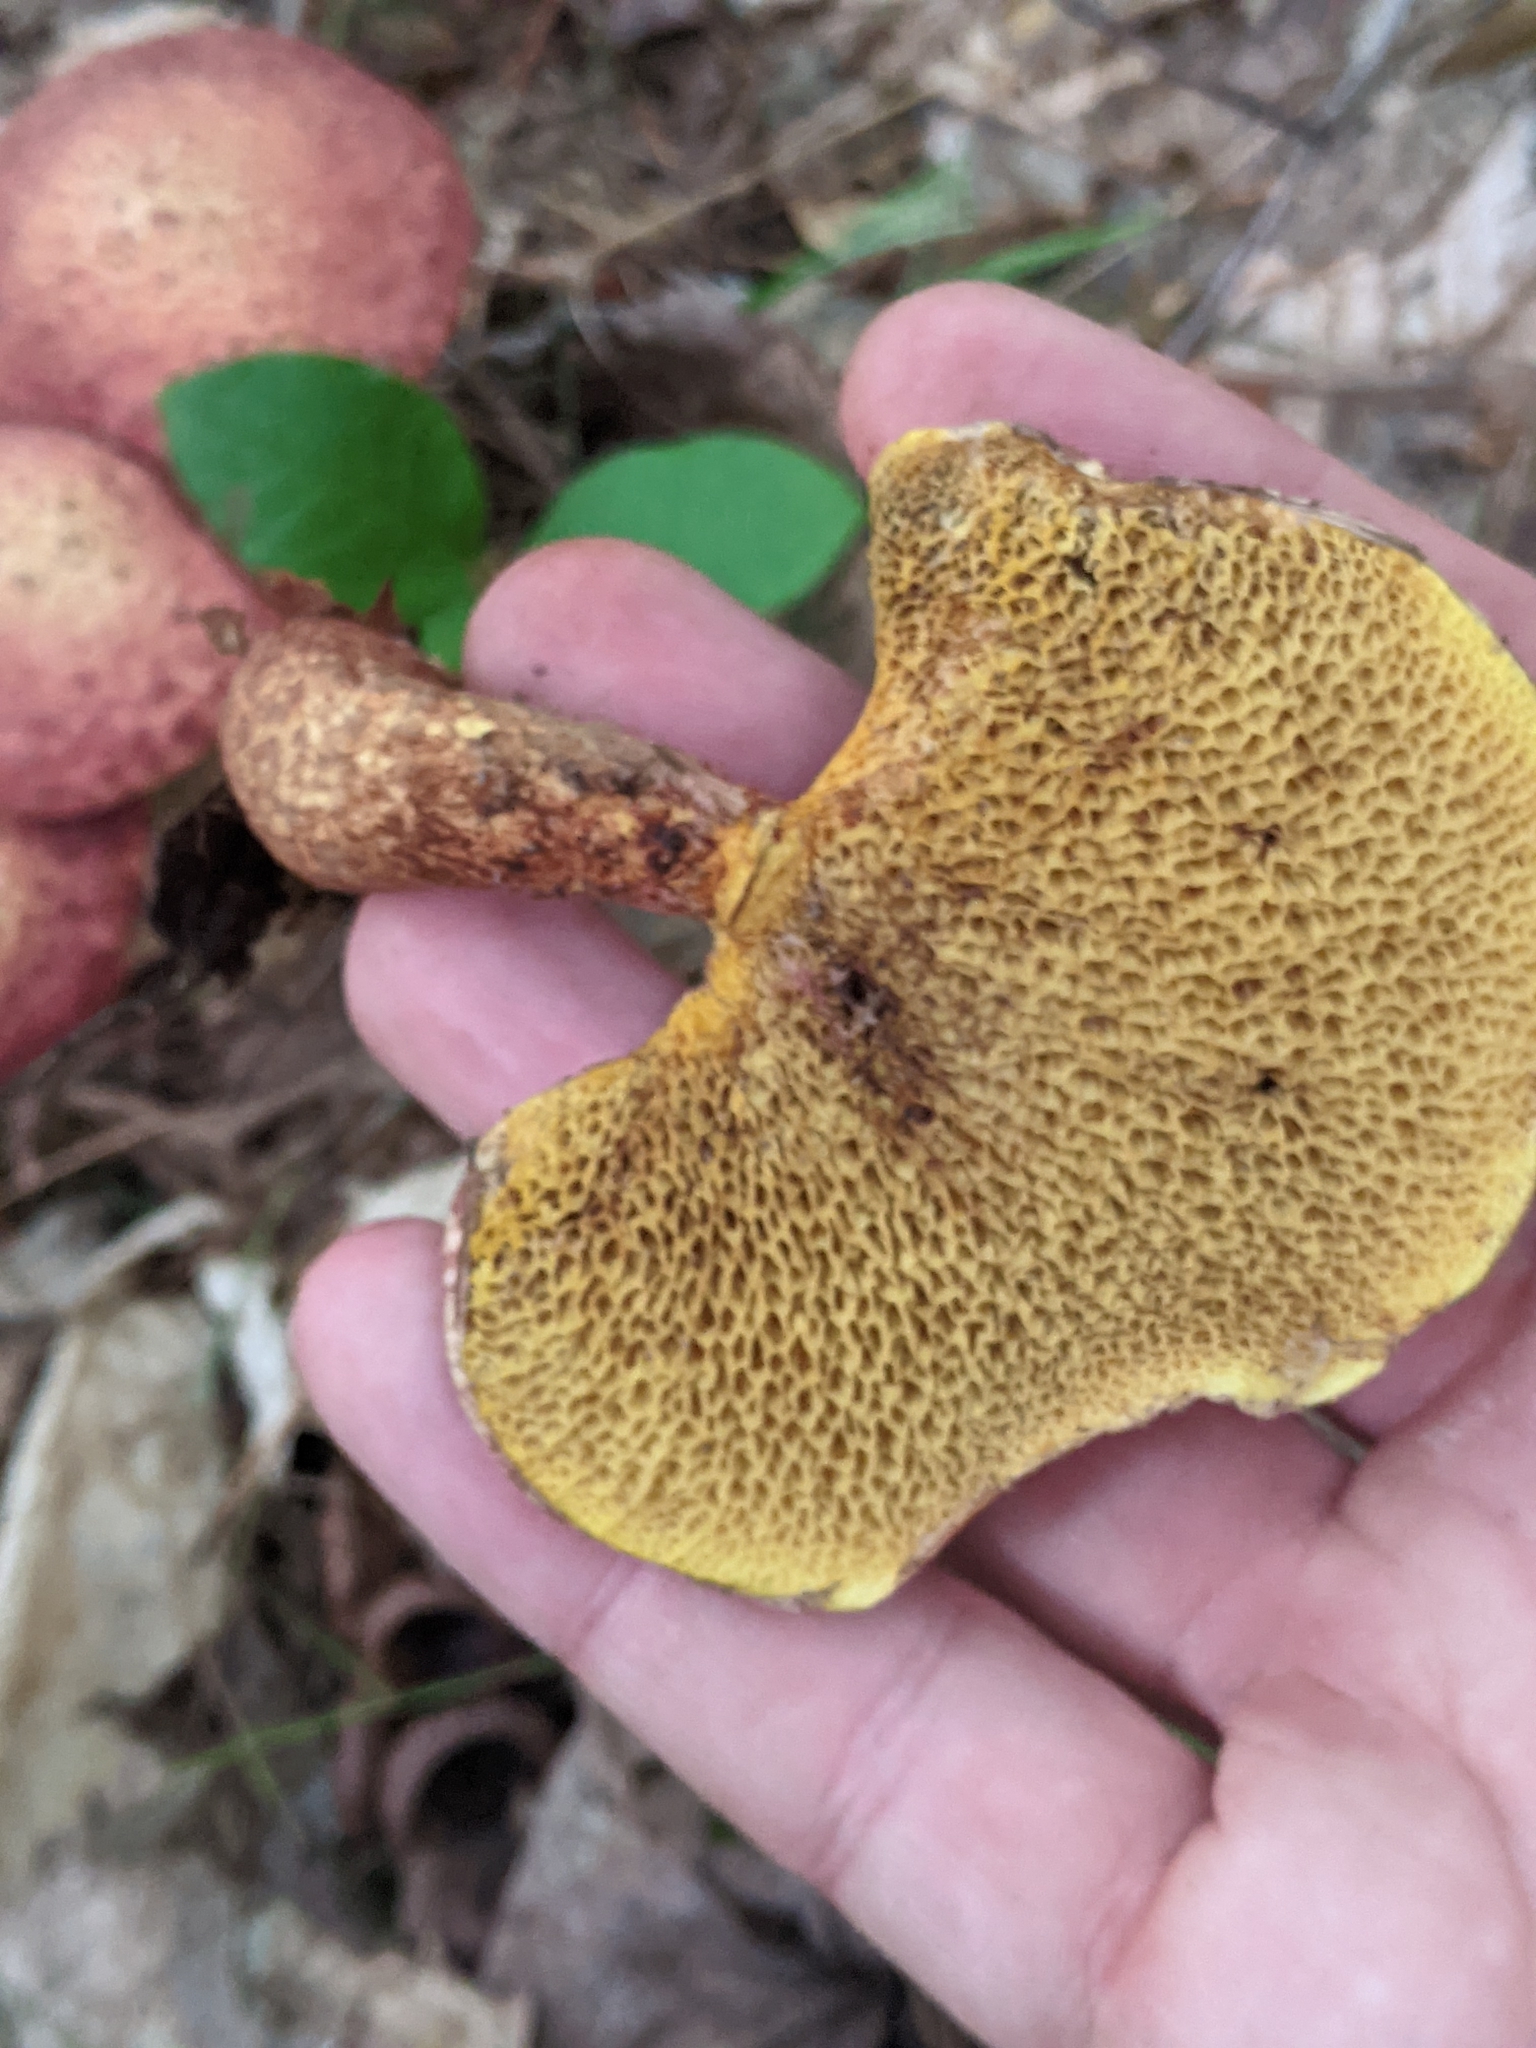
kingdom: Fungi
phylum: Basidiomycota
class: Agaricomycetes
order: Boletales
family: Suillaceae
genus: Suillus
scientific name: Suillus spraguei
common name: Painted suillus
